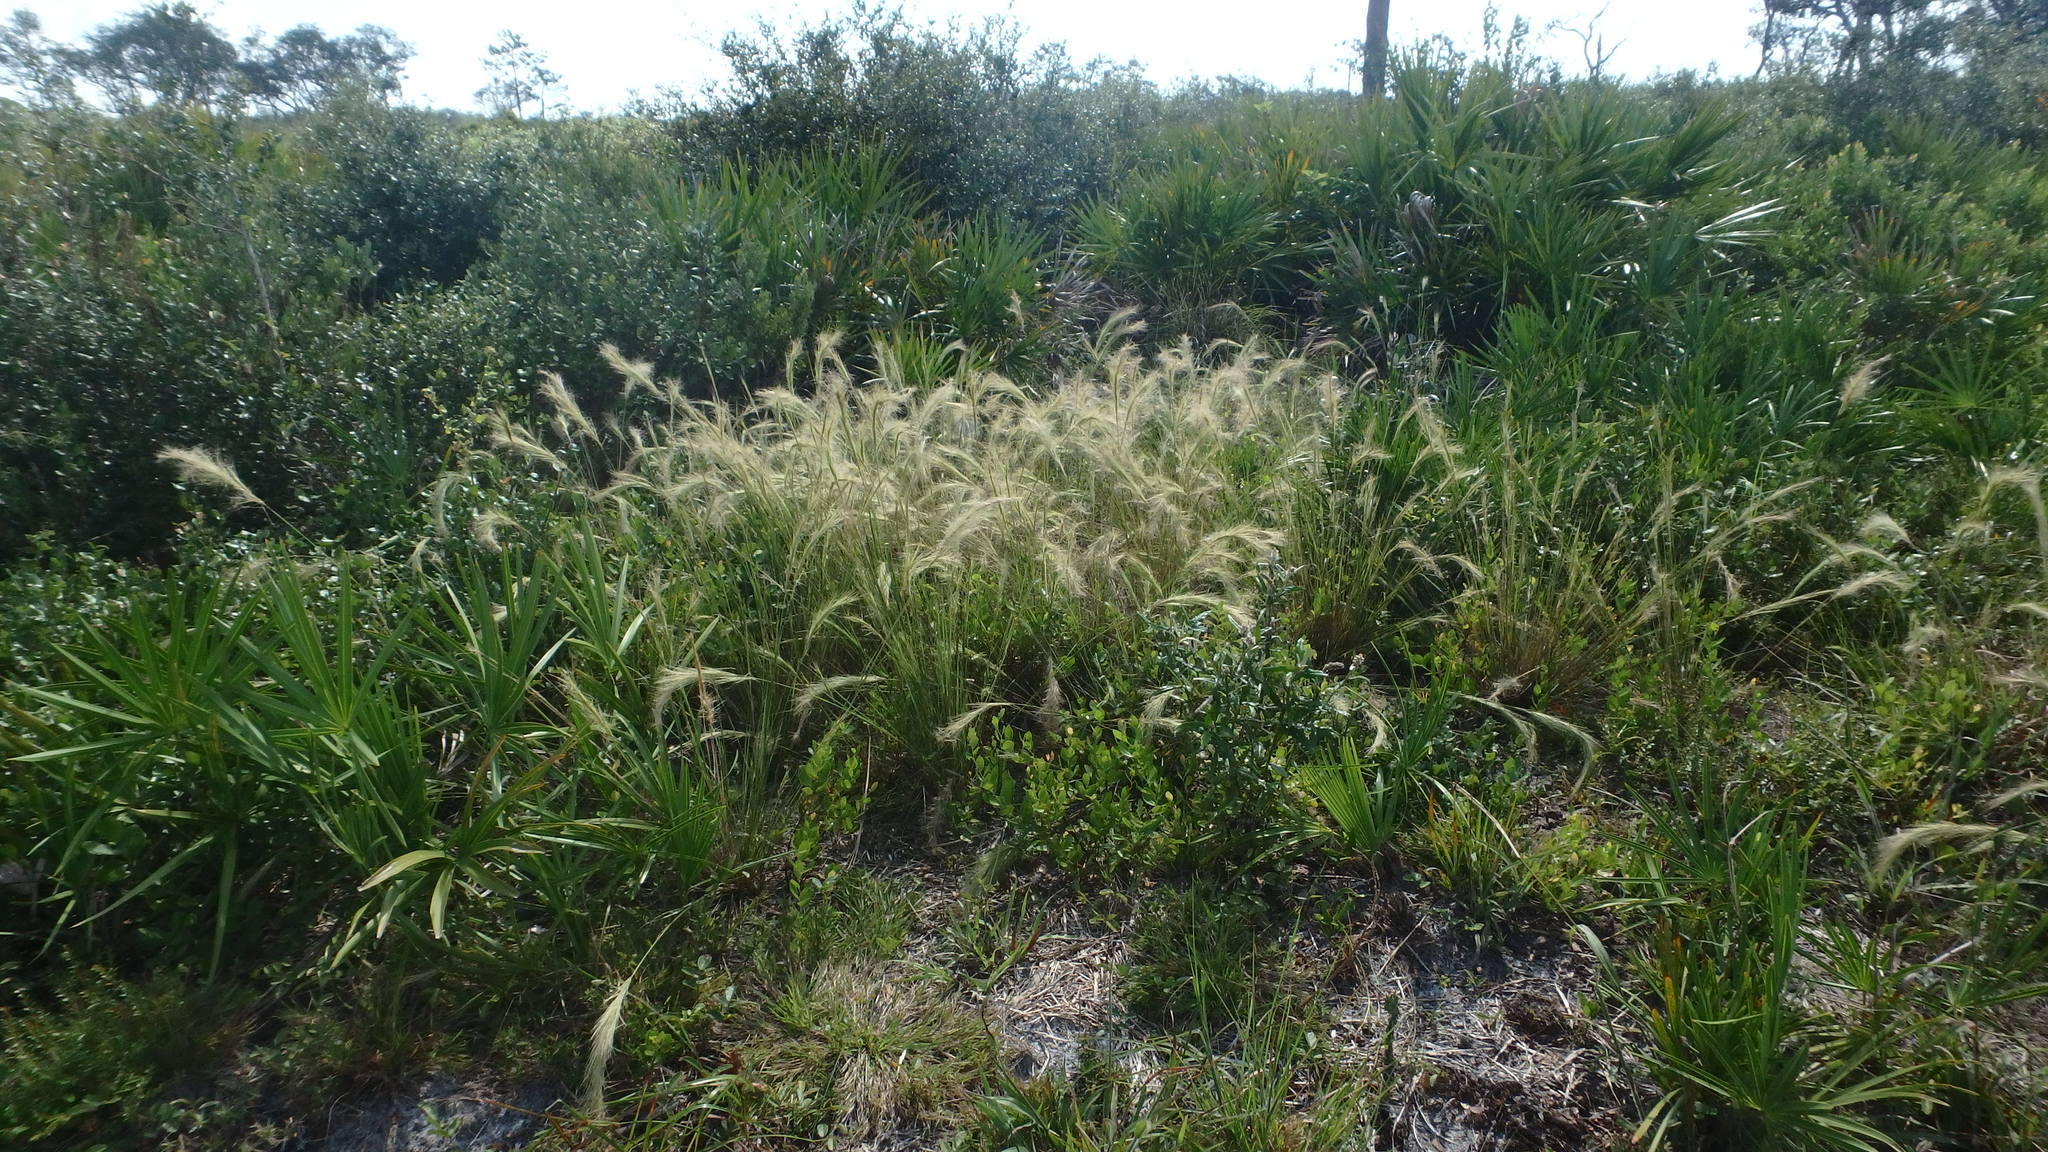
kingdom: Plantae
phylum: Tracheophyta
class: Liliopsida
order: Poales
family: Poaceae
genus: Aristida
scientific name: Aristida spiciformis
